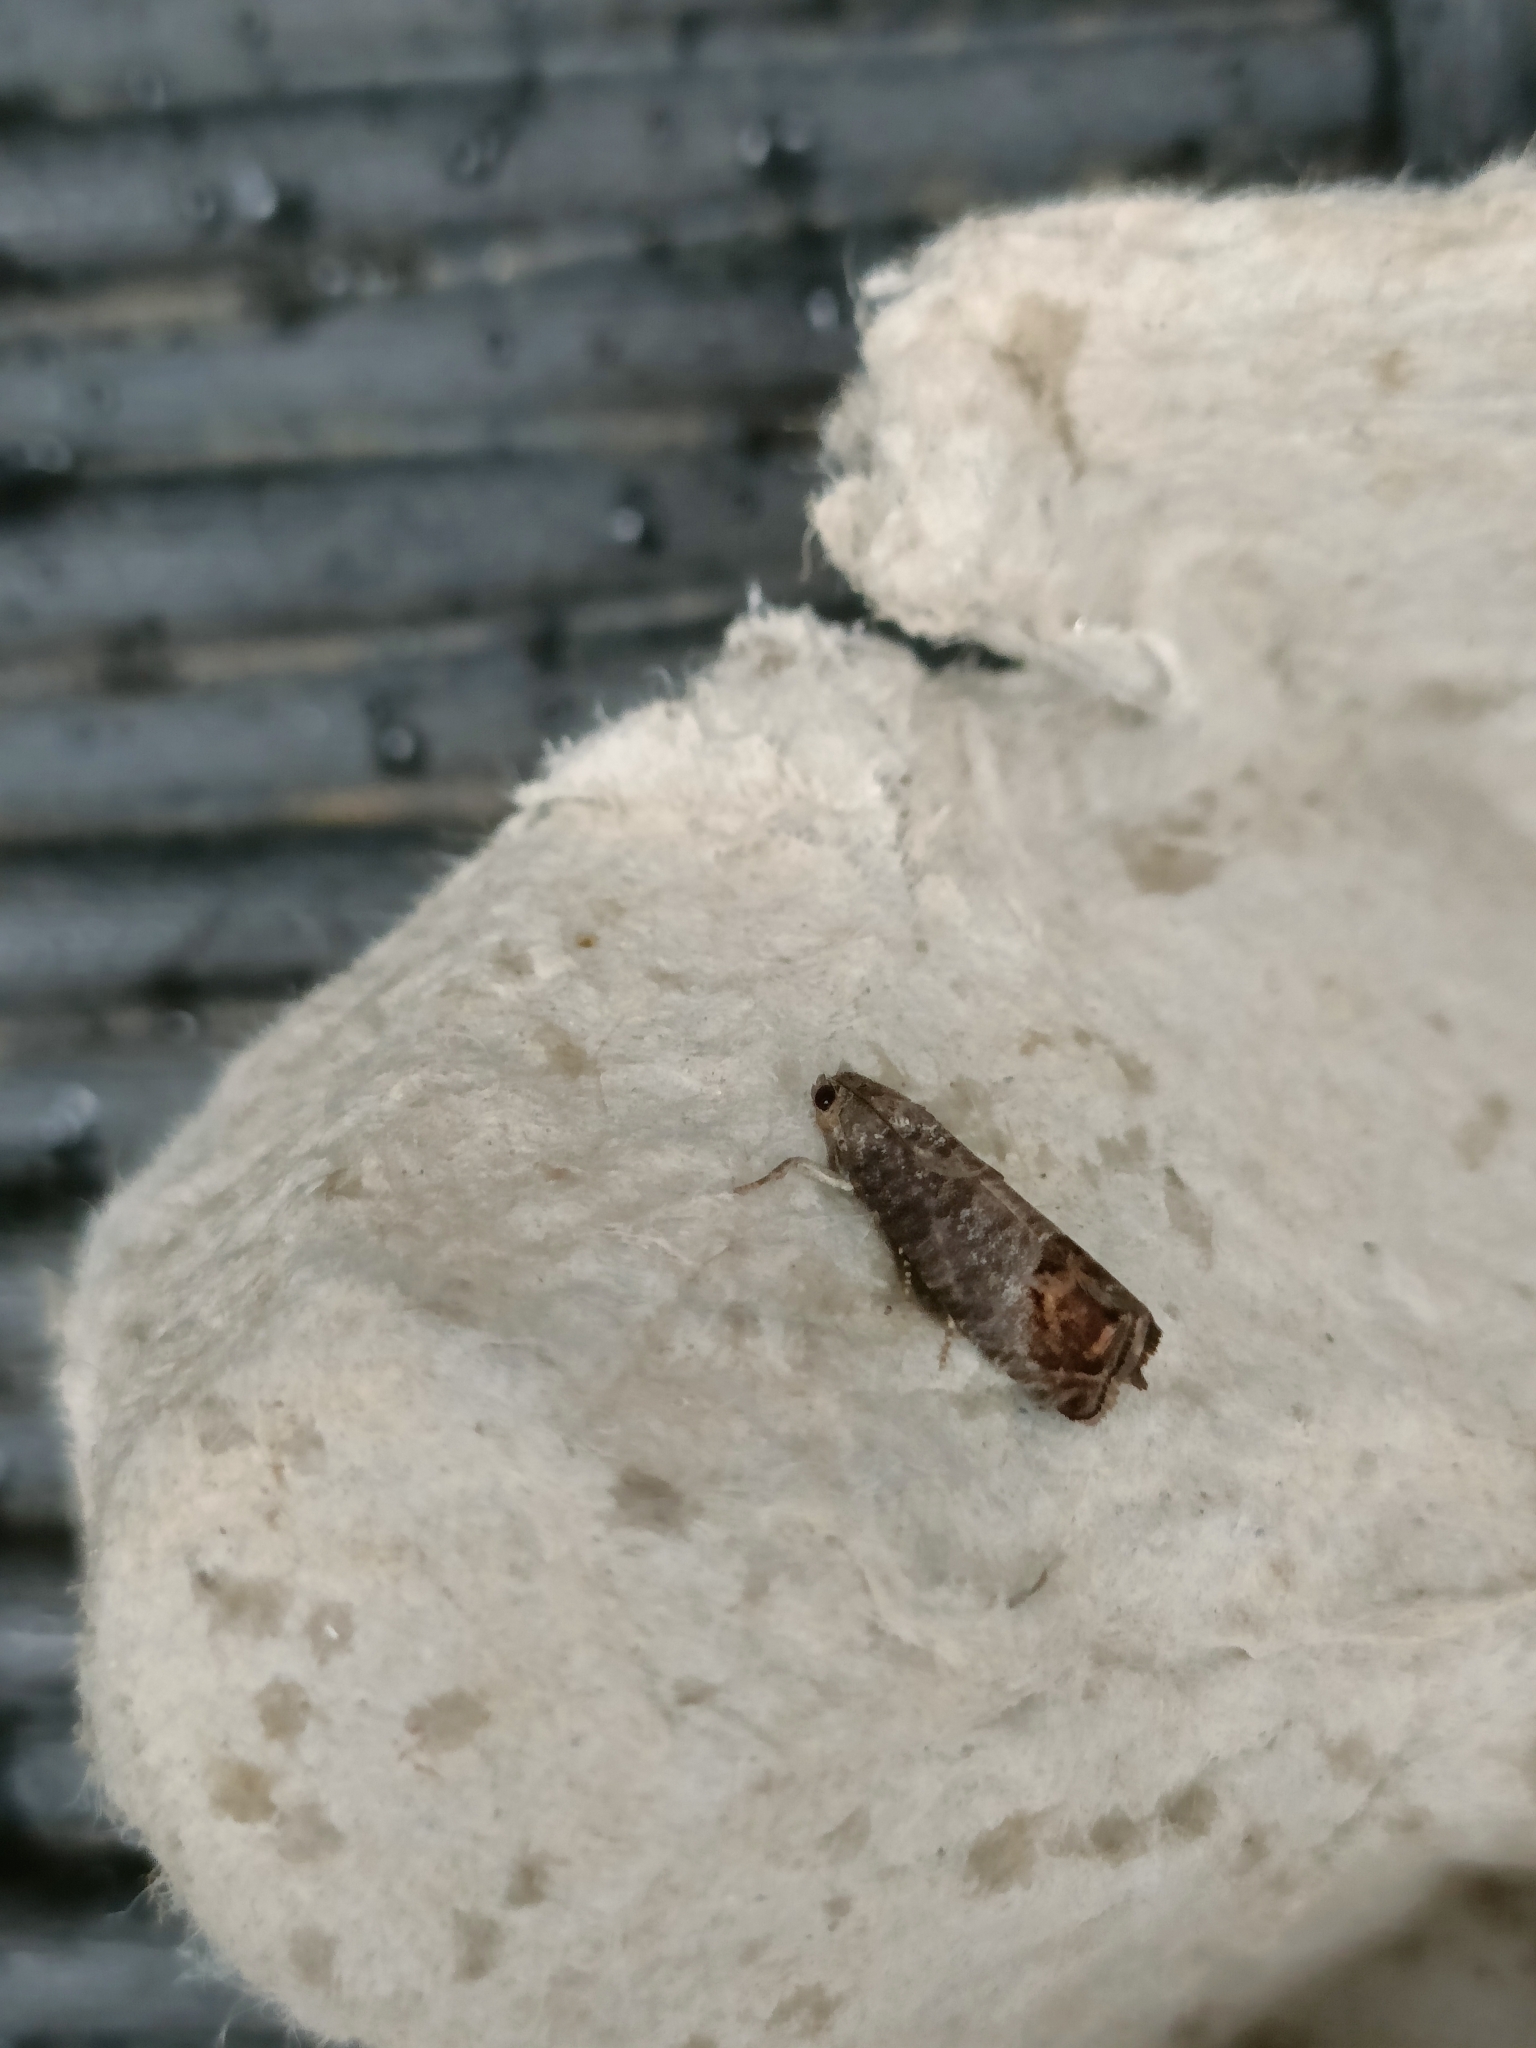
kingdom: Animalia
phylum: Arthropoda
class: Insecta
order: Lepidoptera
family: Tortricidae
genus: Cydia
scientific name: Cydia pomonella
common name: Codling moth
